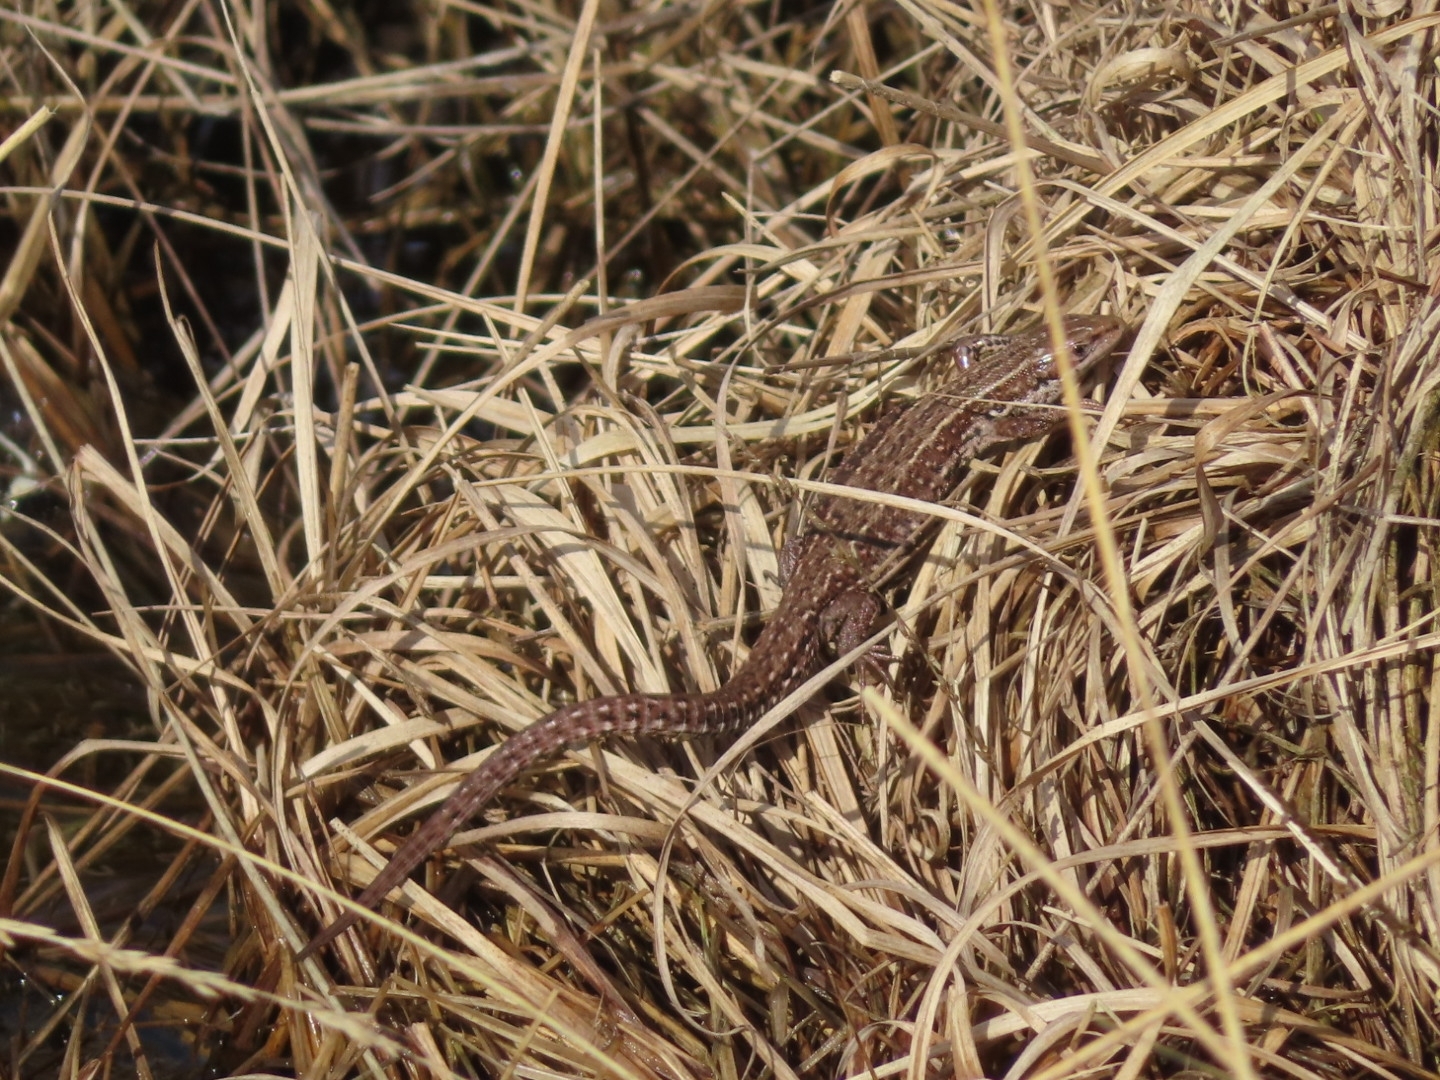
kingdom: Animalia
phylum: Chordata
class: Squamata
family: Lacertidae
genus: Zootoca
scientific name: Zootoca vivipara
